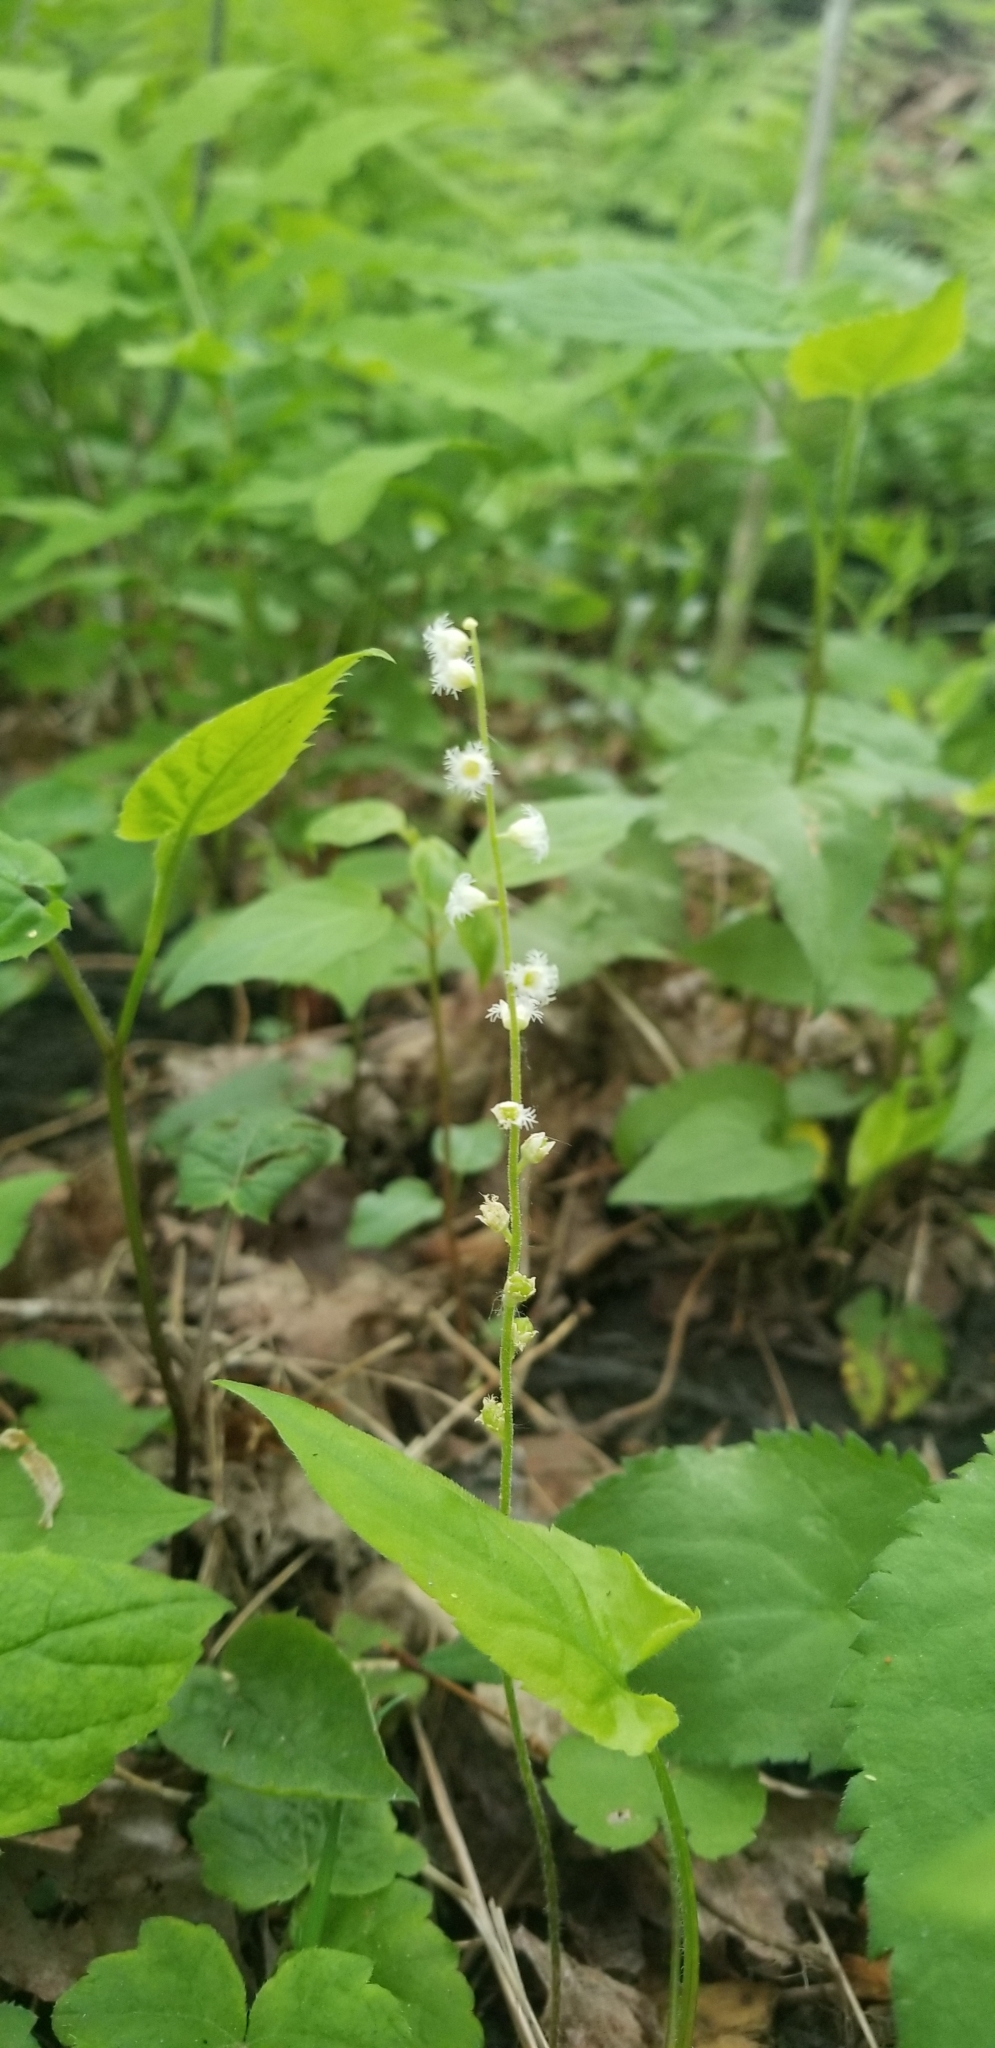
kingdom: Plantae
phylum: Tracheophyta
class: Magnoliopsida
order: Saxifragales
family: Saxifragaceae
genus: Mitella
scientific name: Mitella diphylla
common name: Coolwort
